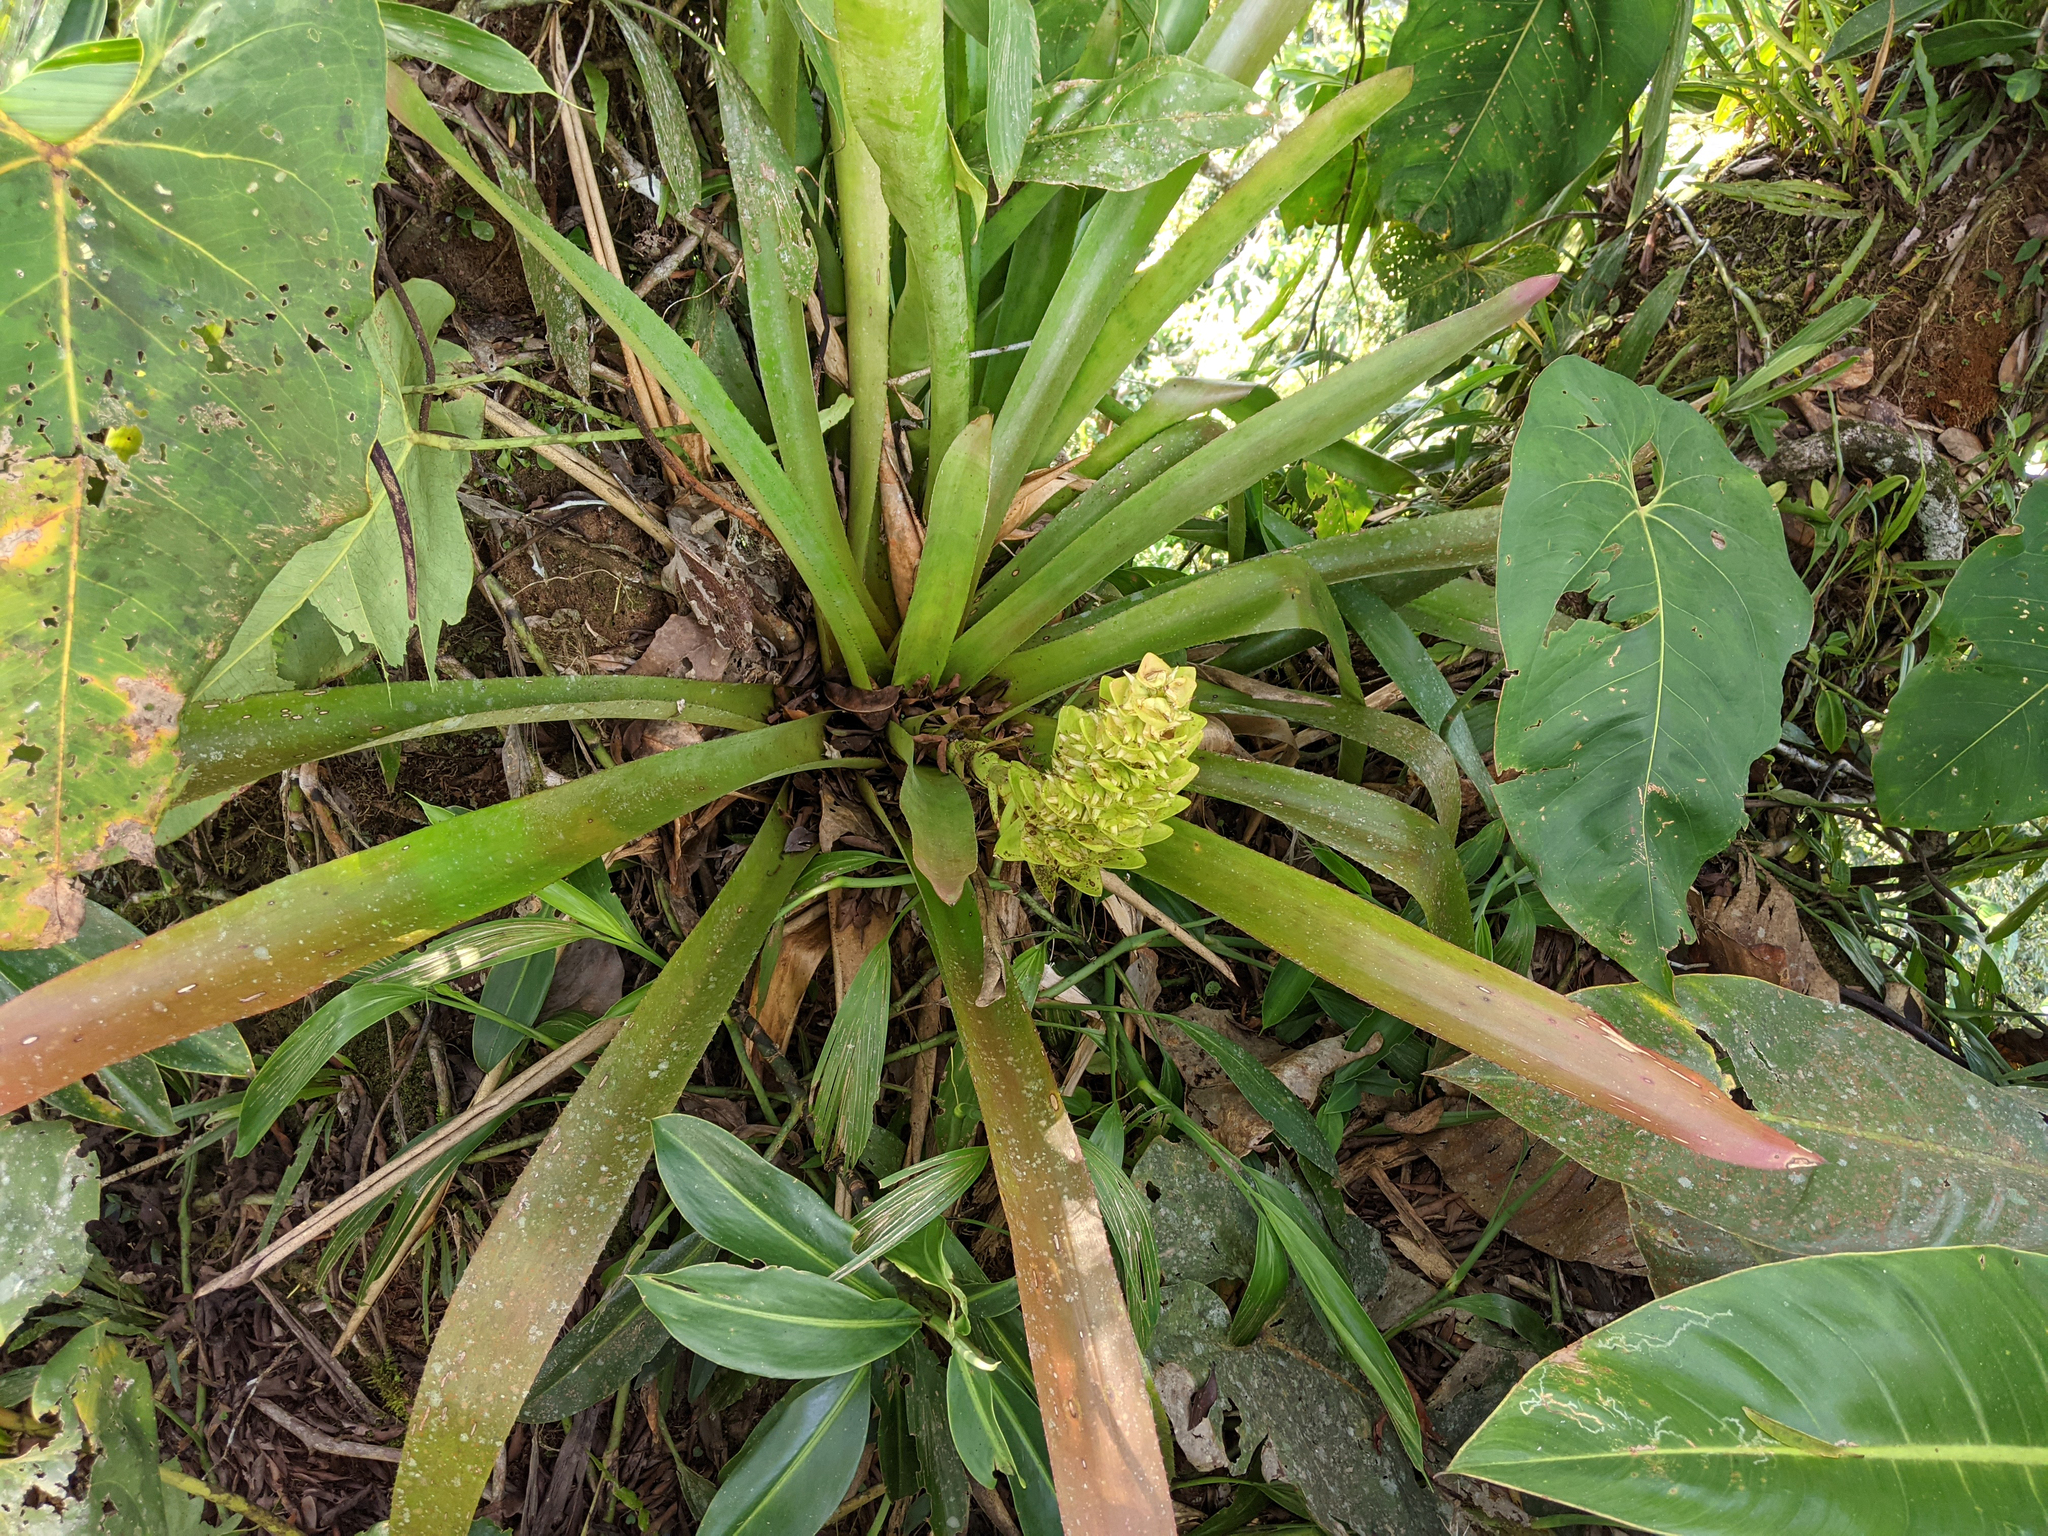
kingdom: Plantae
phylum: Tracheophyta
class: Liliopsida
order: Poales
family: Bromeliaceae
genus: Aechmea
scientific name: Aechmea hoppii
